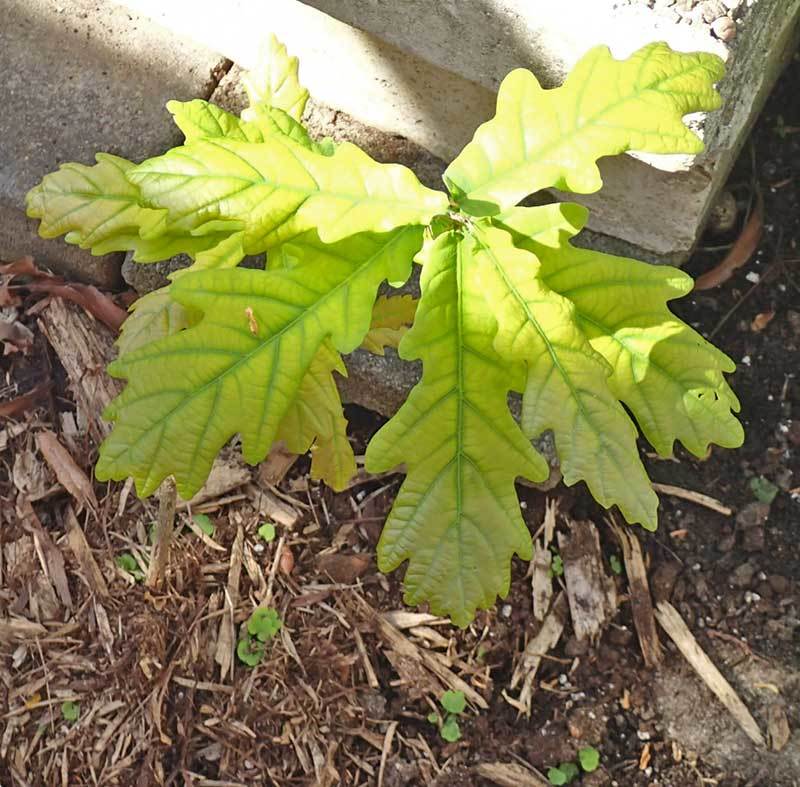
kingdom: Plantae
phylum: Tracheophyta
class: Magnoliopsida
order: Fagales
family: Fagaceae
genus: Quercus
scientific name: Quercus robur
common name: Pedunculate oak
